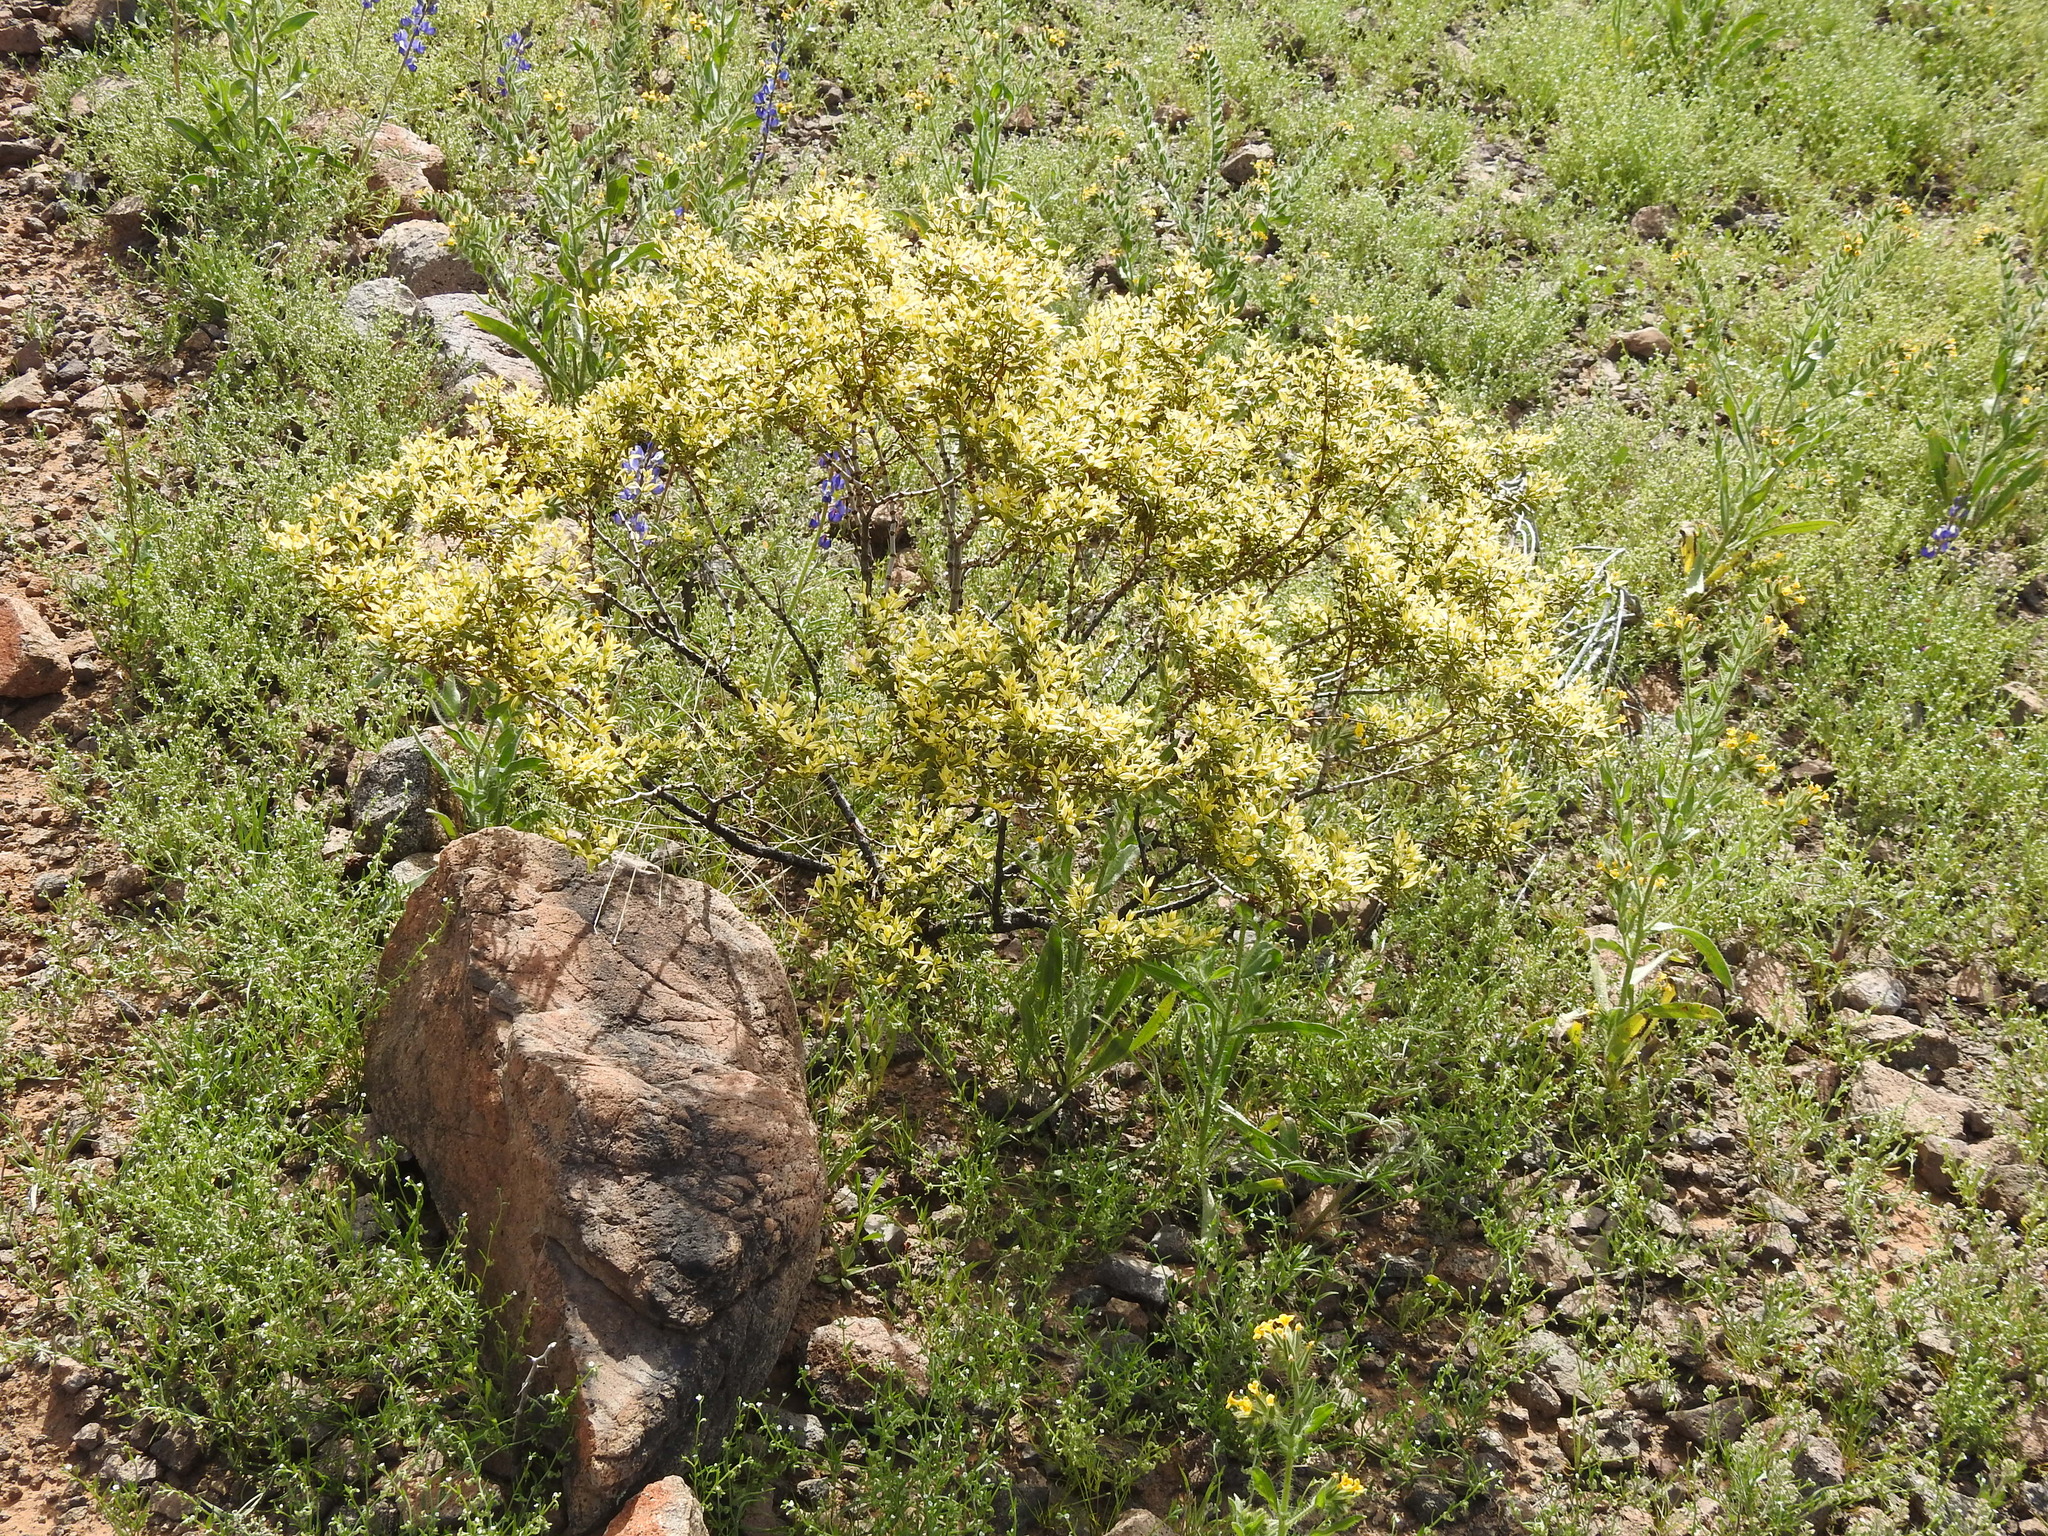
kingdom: Plantae
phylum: Tracheophyta
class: Magnoliopsida
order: Zygophyllales
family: Zygophyllaceae
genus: Larrea
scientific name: Larrea tridentata
